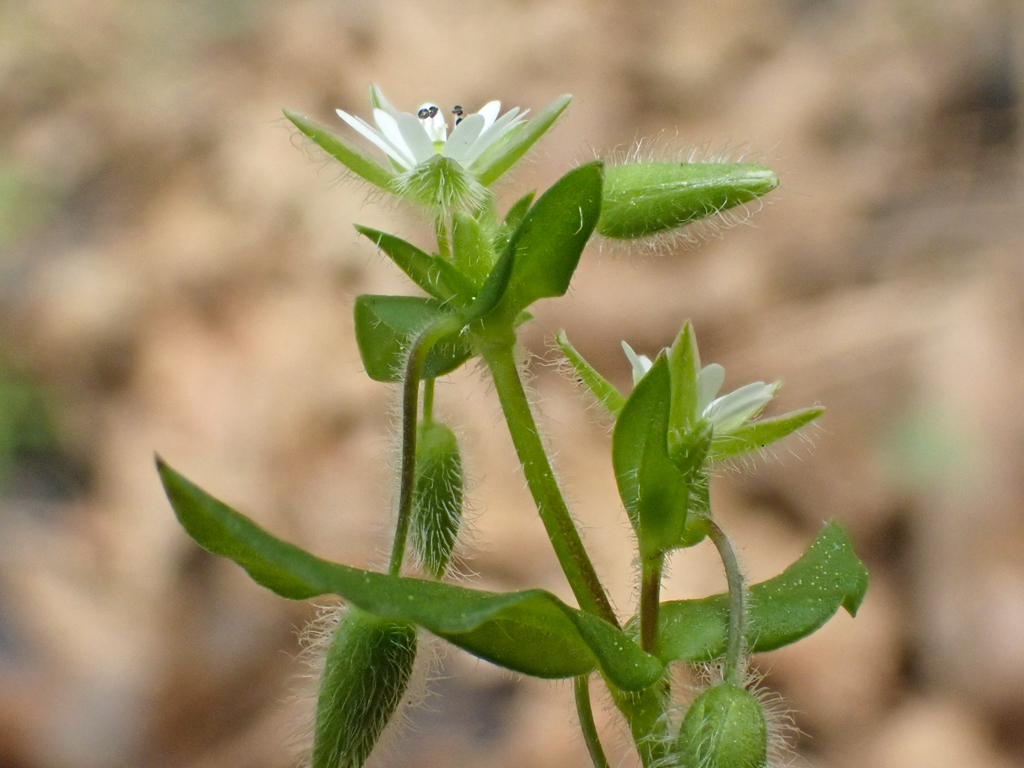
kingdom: Plantae
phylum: Tracheophyta
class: Magnoliopsida
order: Caryophyllales
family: Caryophyllaceae
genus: Stellaria
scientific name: Stellaria media
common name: Common chickweed
